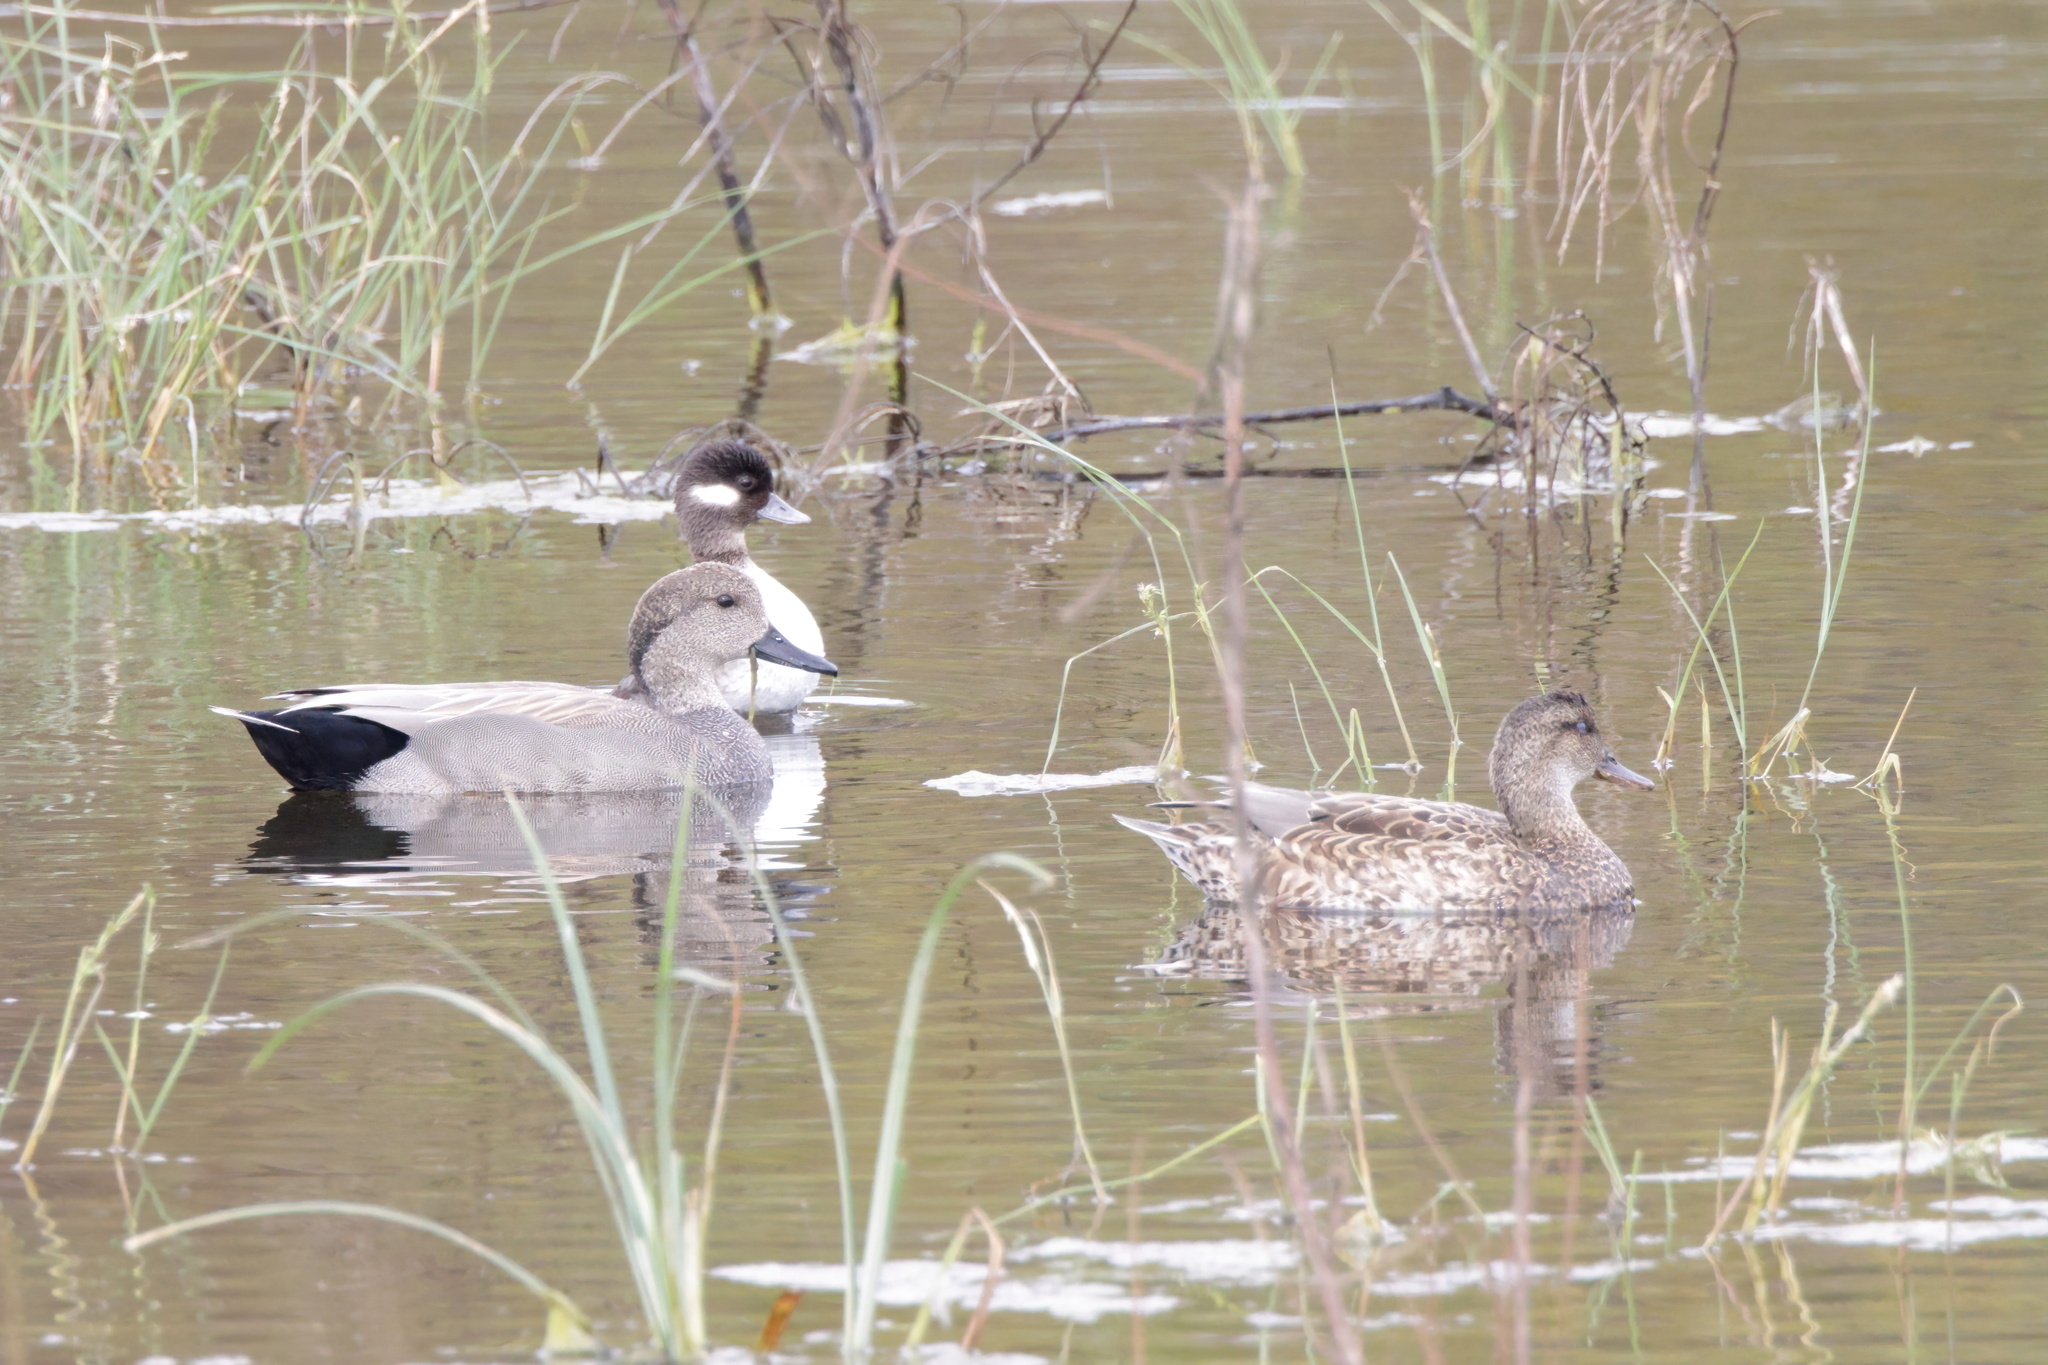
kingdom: Animalia
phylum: Chordata
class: Aves
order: Anseriformes
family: Anatidae
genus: Mareca
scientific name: Mareca strepera
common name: Gadwall
